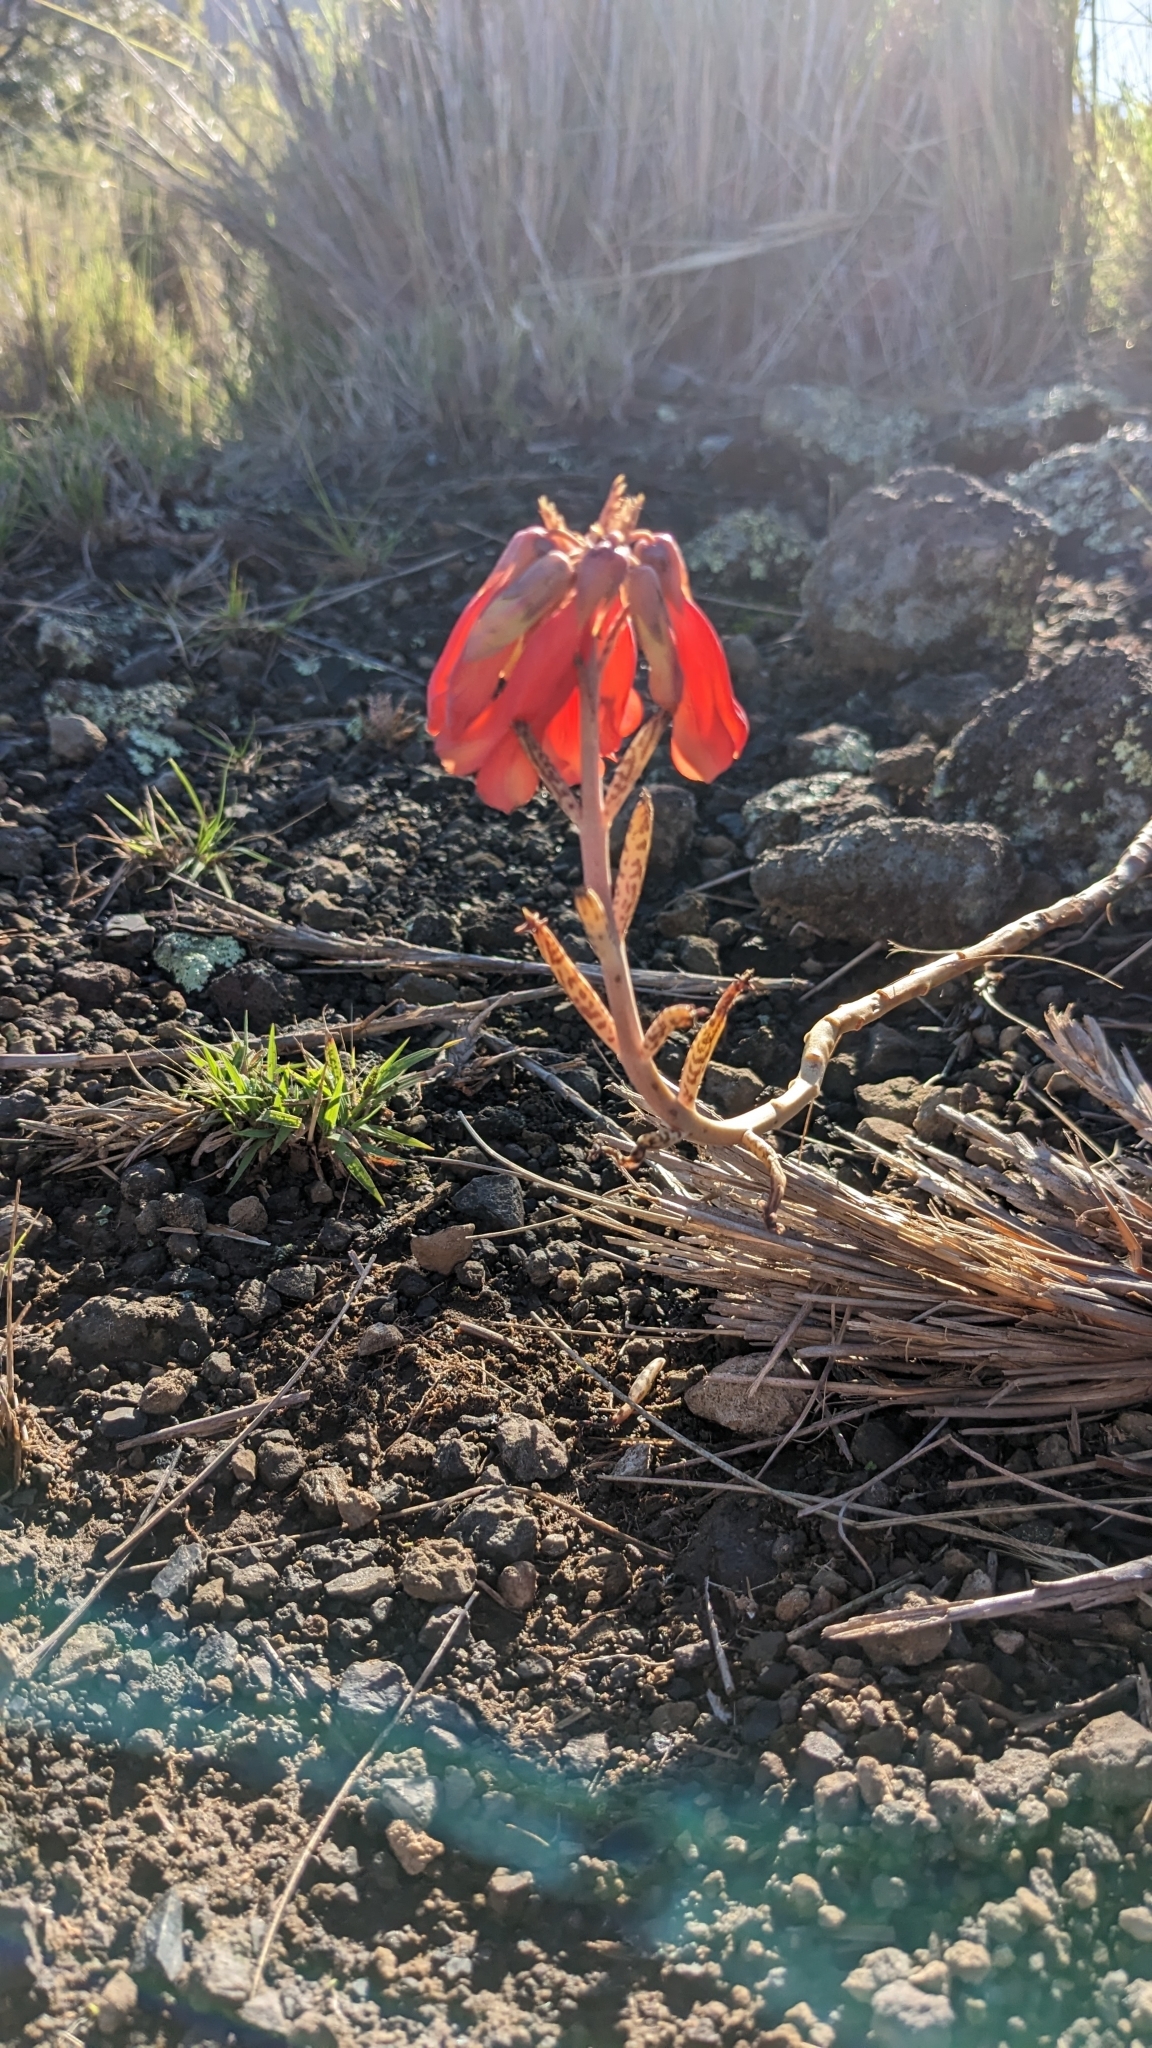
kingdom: Plantae
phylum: Tracheophyta
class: Magnoliopsida
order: Saxifragales
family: Crassulaceae
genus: Kalanchoe
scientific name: Kalanchoe delagoensis
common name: Chandelier plant
